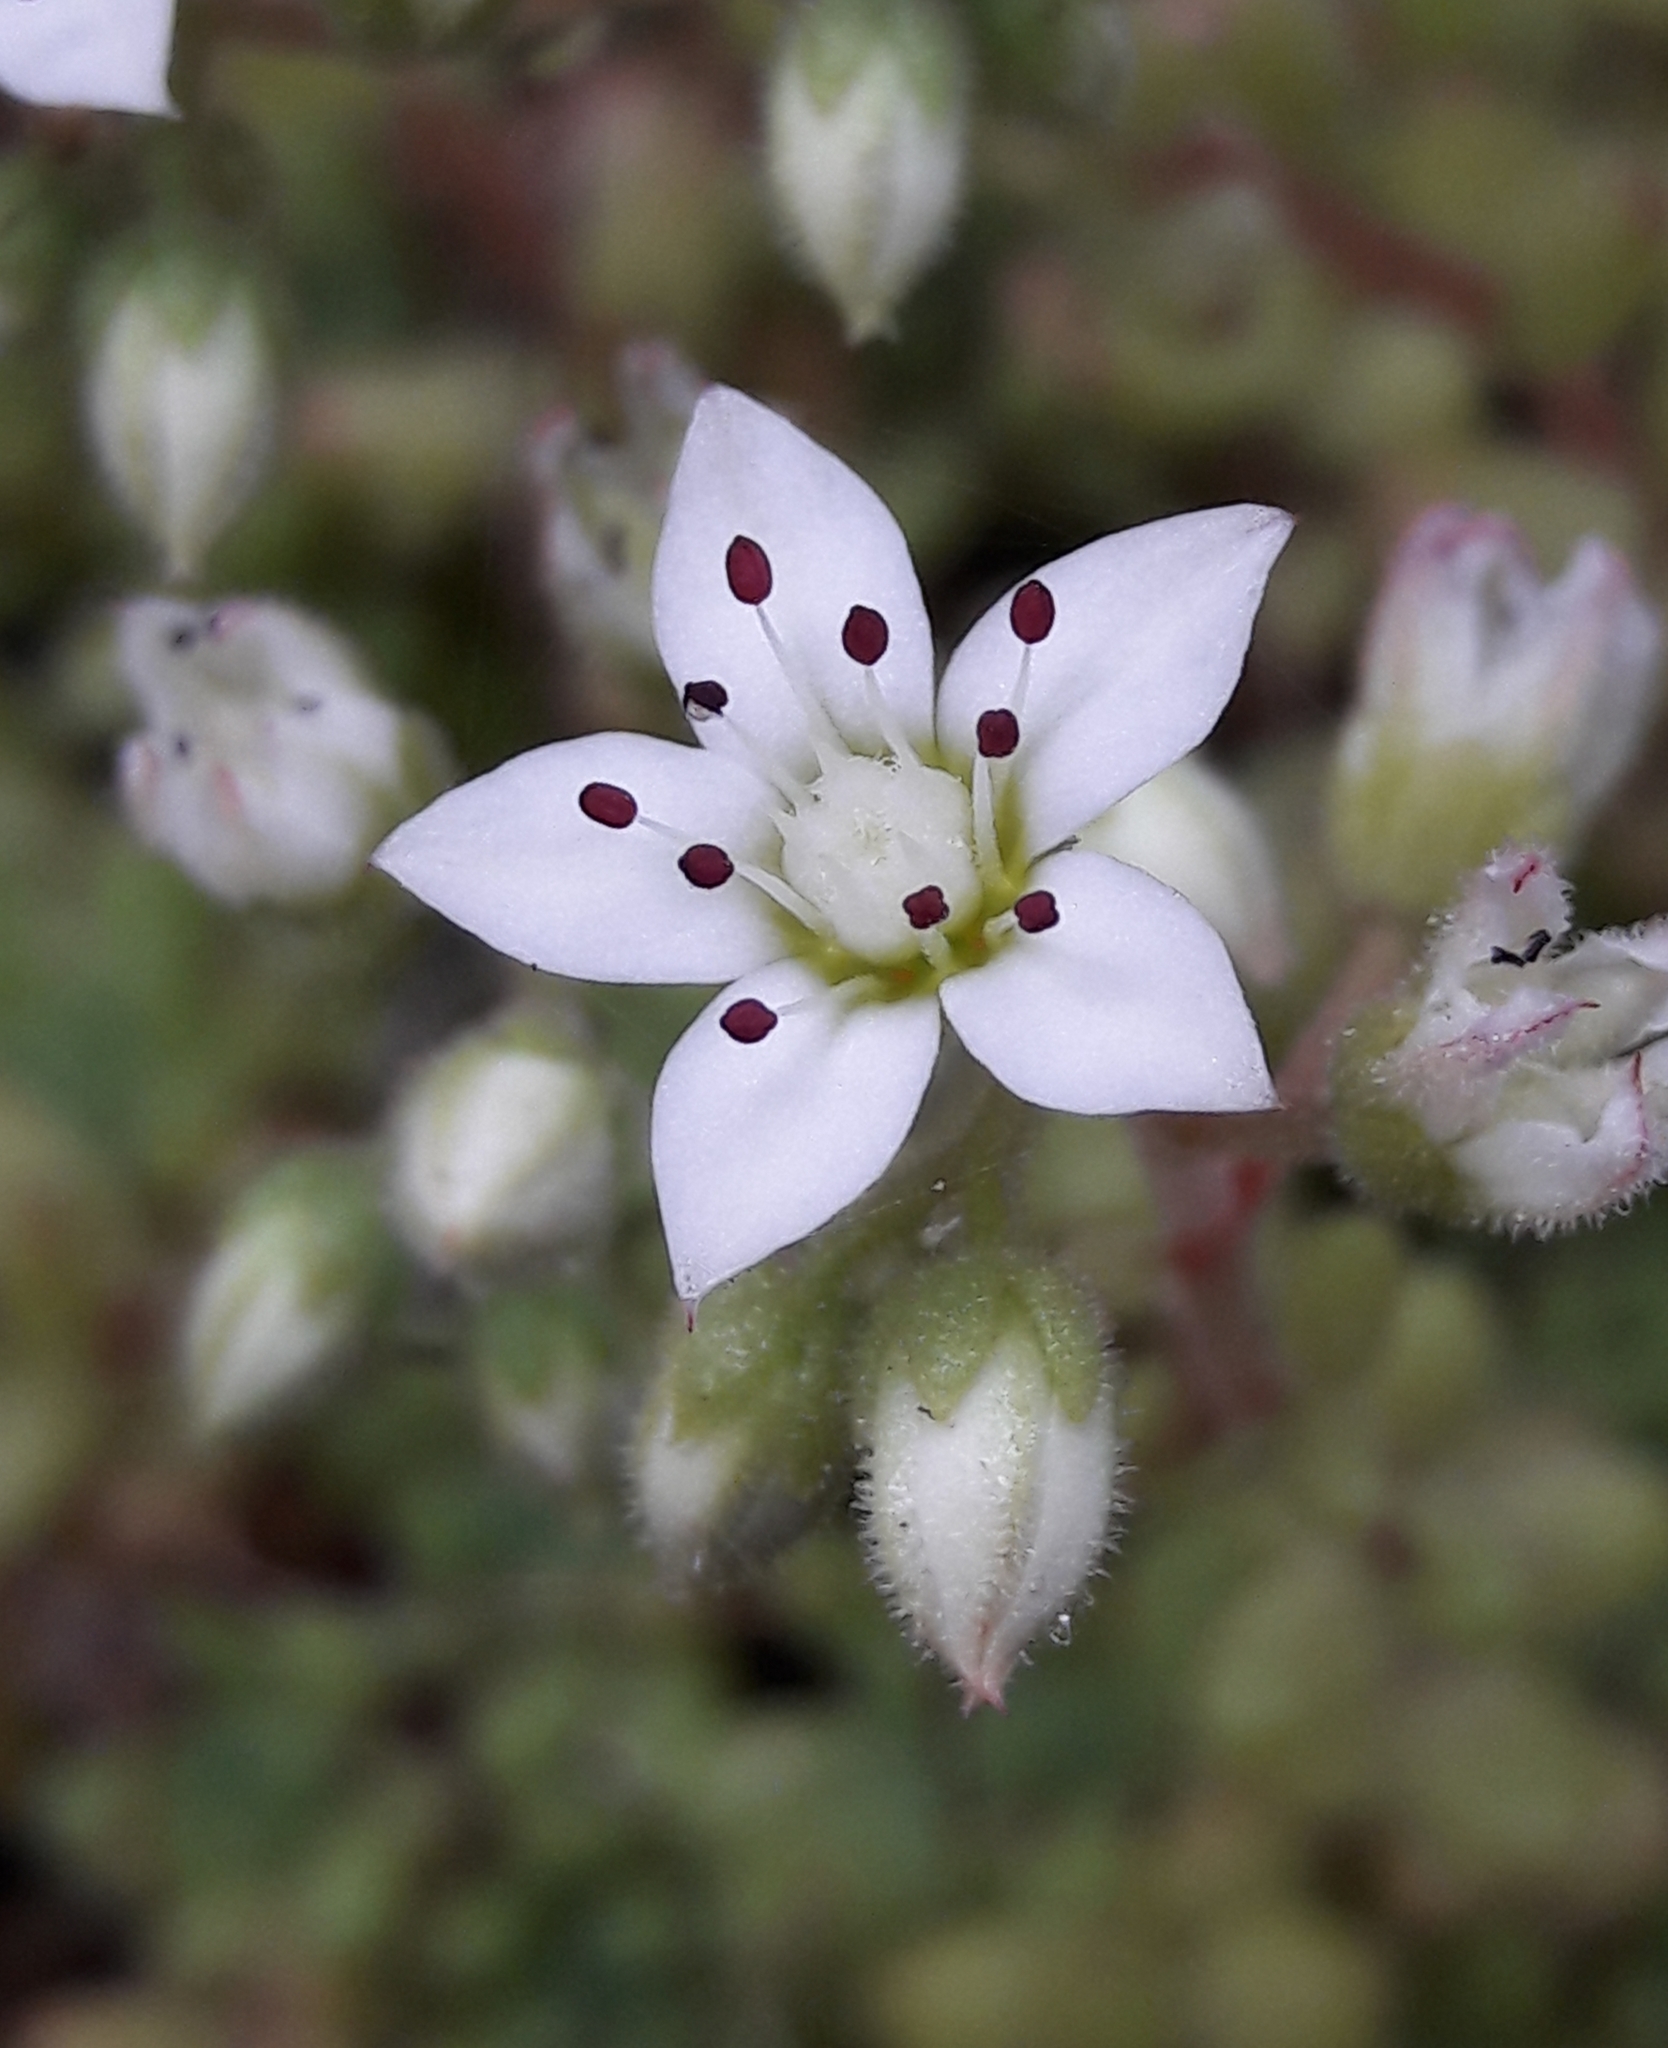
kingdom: Plantae
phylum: Tracheophyta
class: Magnoliopsida
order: Saxifragales
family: Crassulaceae
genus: Sedum
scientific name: Sedum hirsutum
